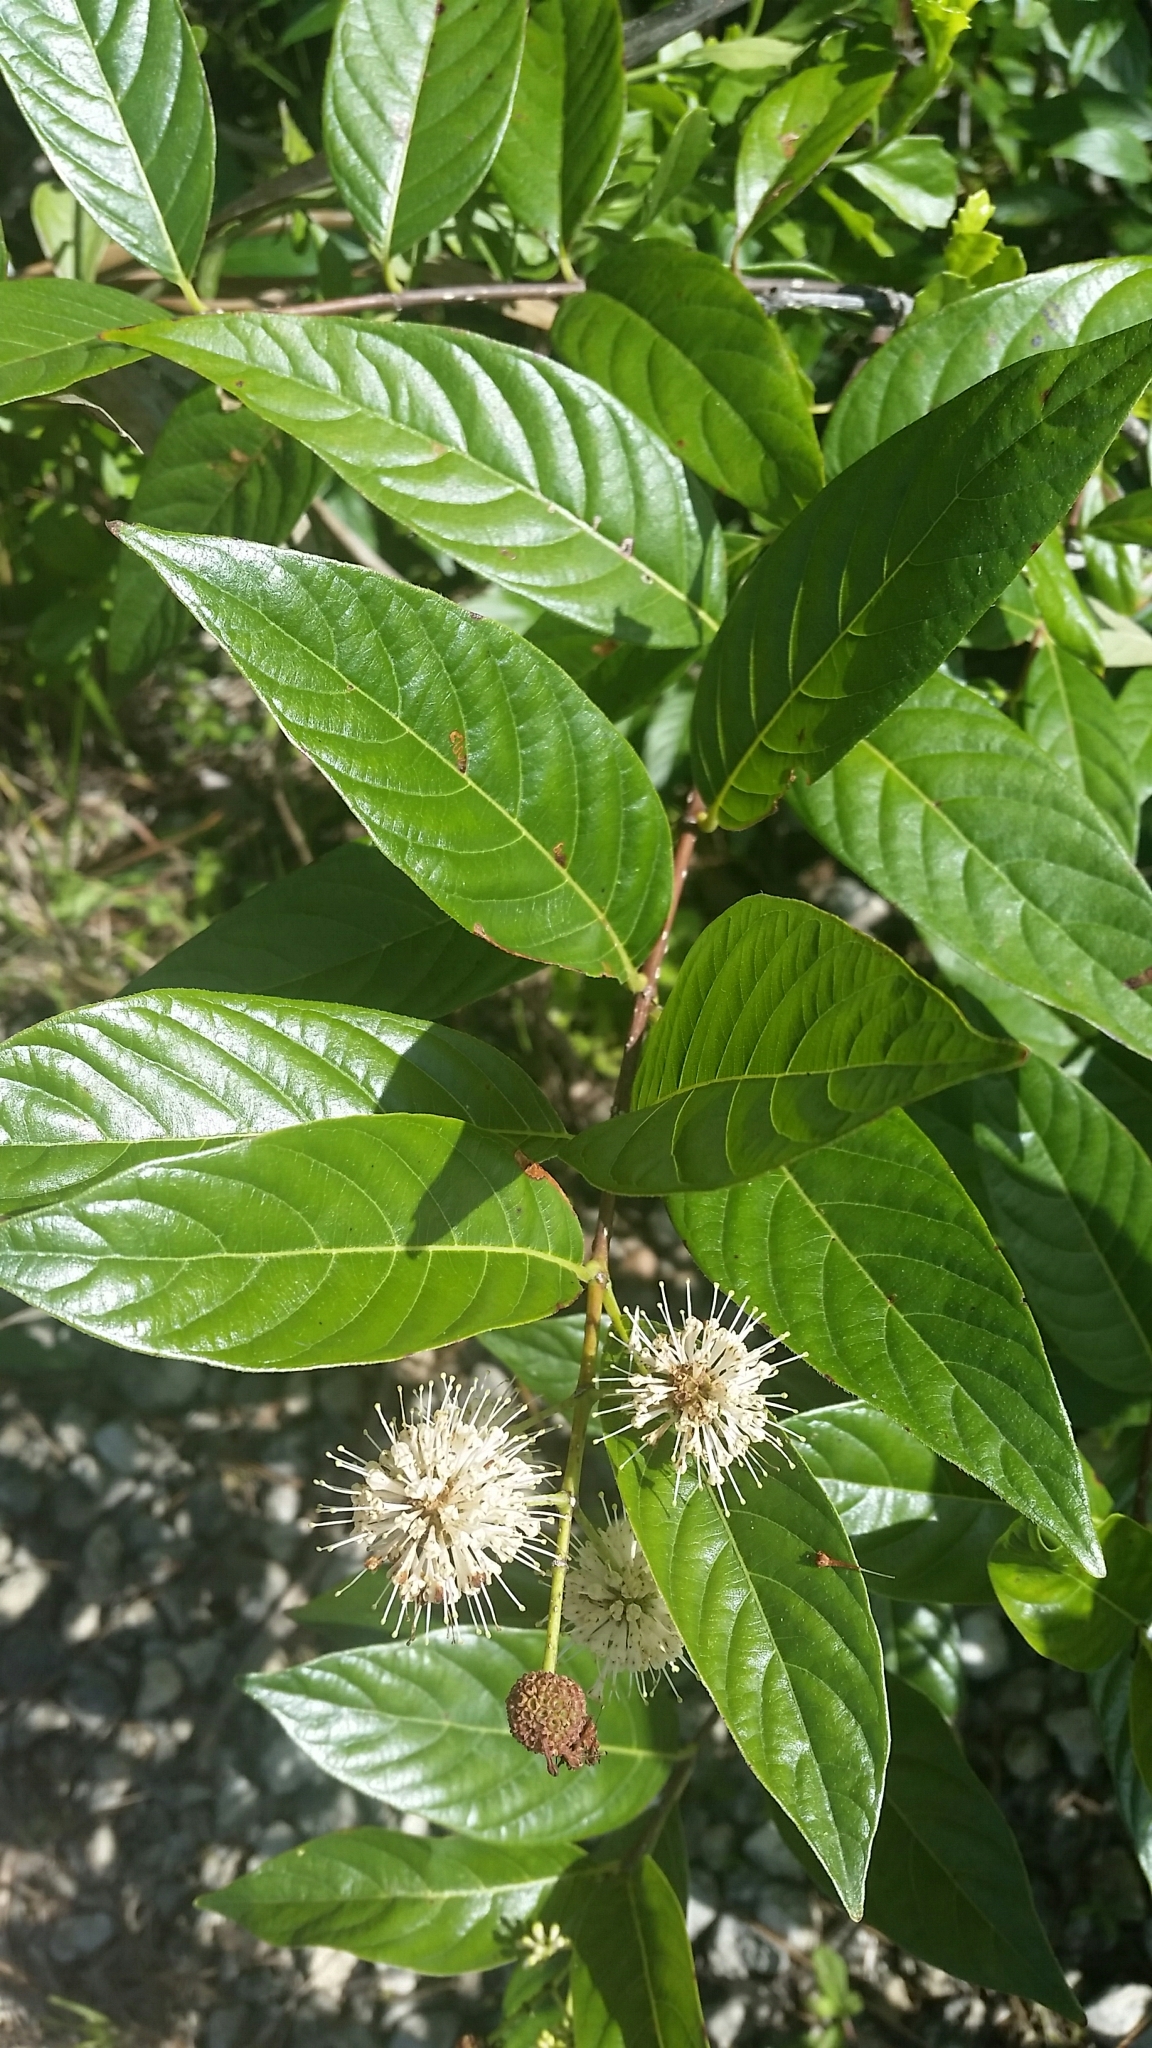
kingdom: Plantae
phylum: Tracheophyta
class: Magnoliopsida
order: Gentianales
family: Rubiaceae
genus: Cephalanthus
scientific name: Cephalanthus occidentalis
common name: Button-willow
